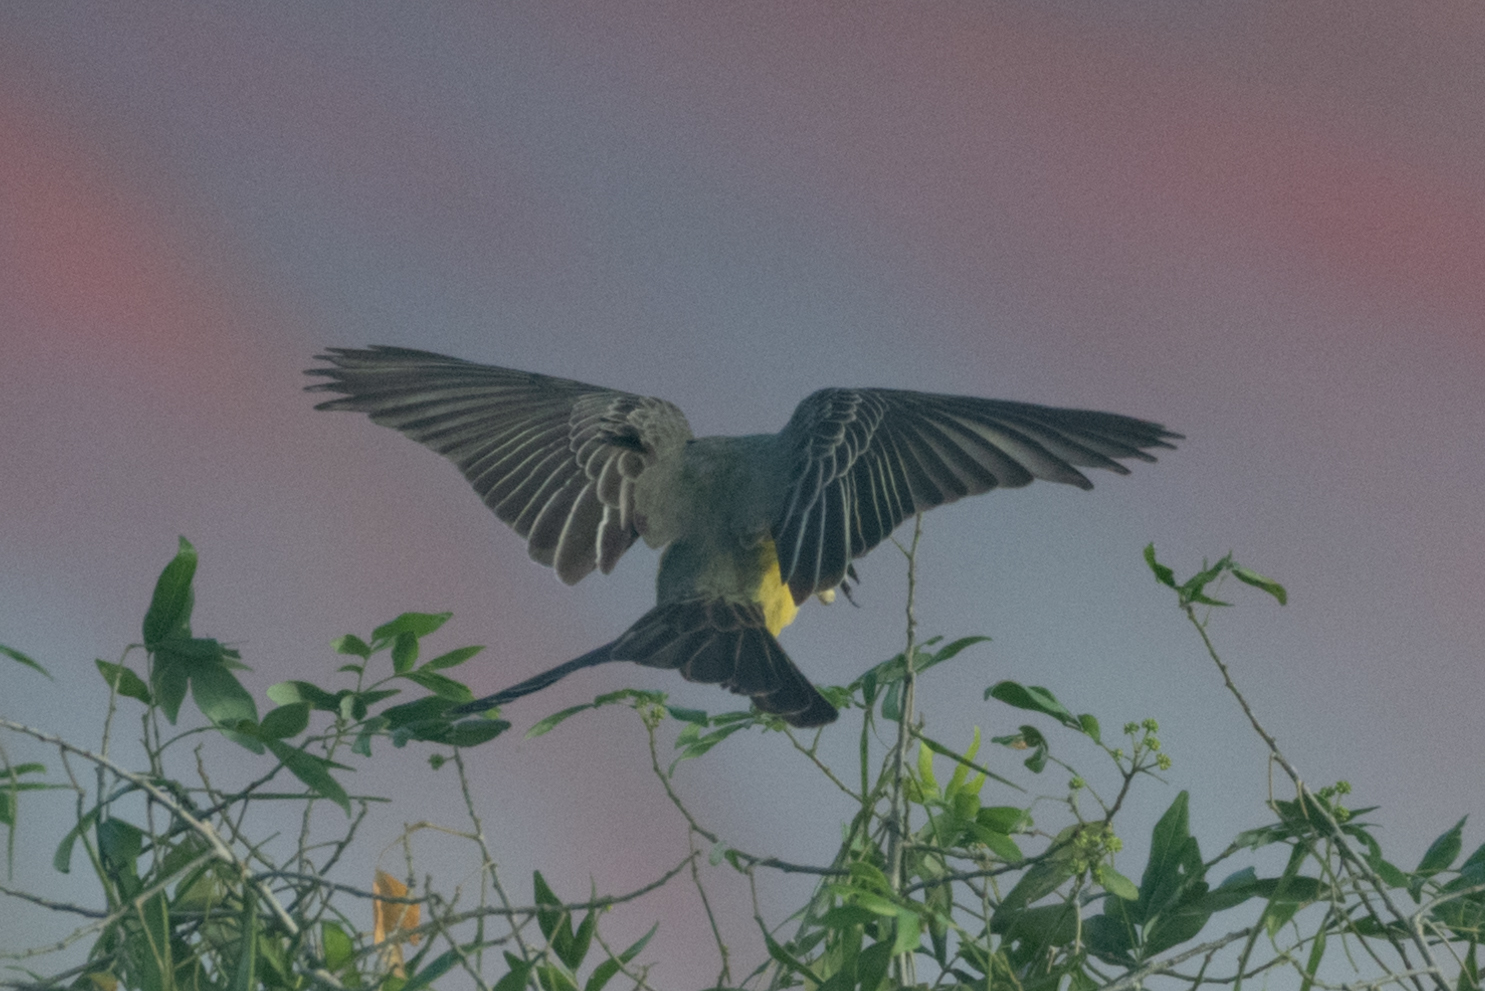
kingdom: Animalia
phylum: Chordata
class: Aves
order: Passeriformes
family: Tyrannidae
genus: Tyrannus
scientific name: Tyrannus melancholicus
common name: Tropical kingbird
